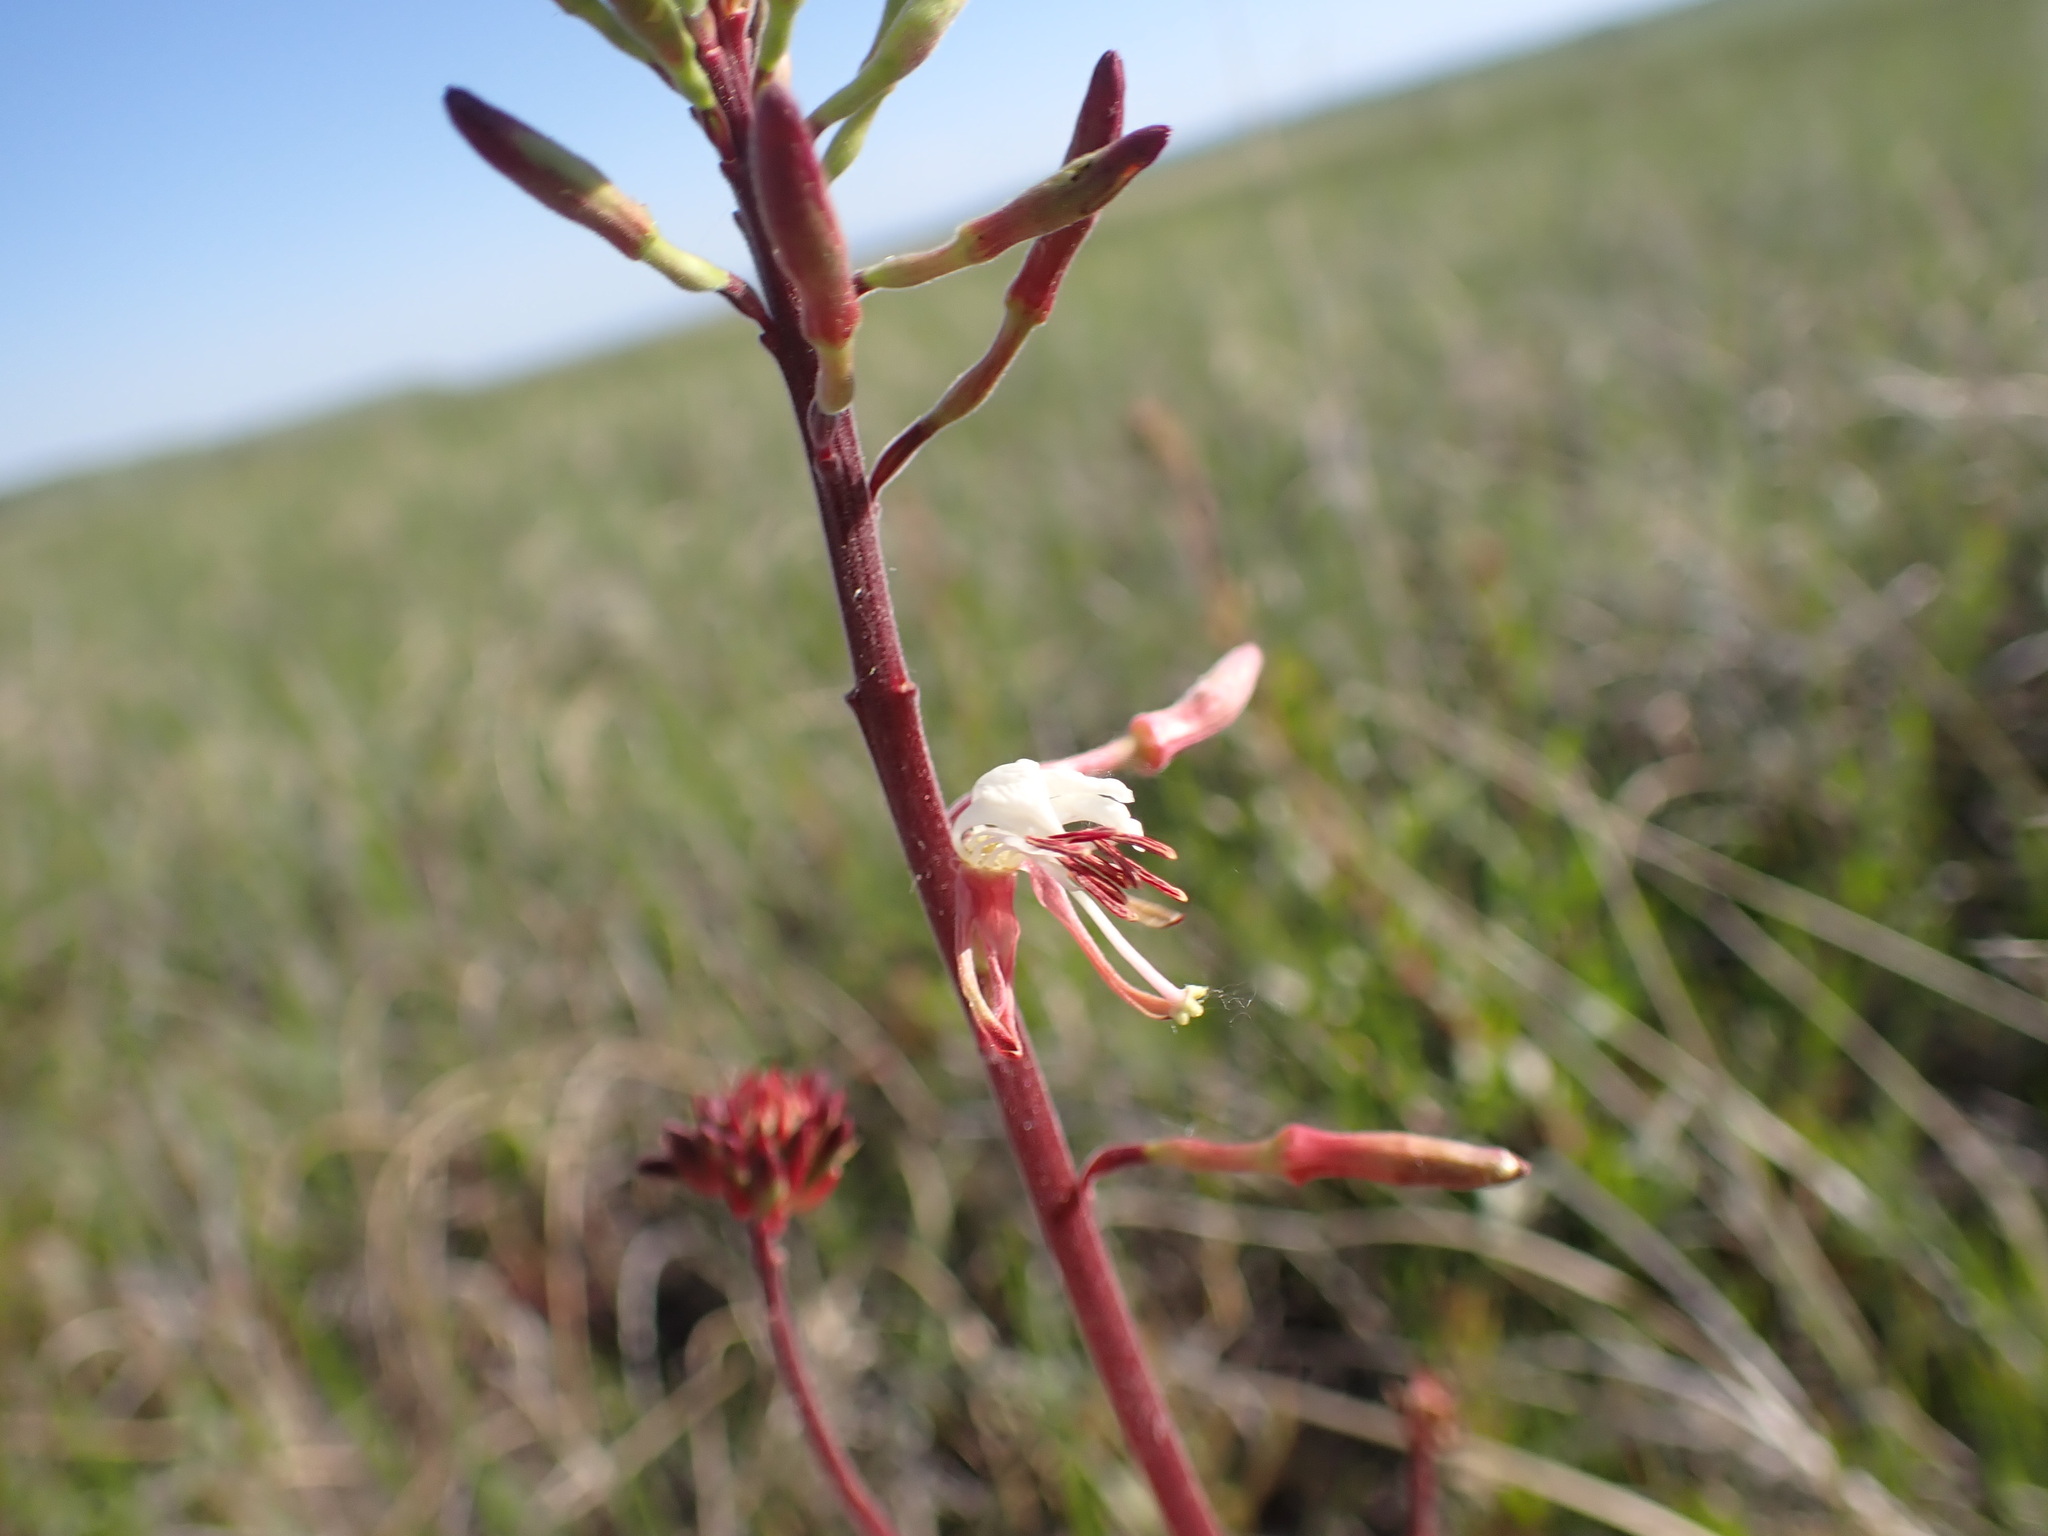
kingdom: Plantae
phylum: Tracheophyta
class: Magnoliopsida
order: Myrtales
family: Onagraceae
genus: Oenothera
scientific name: Oenothera coloradensis
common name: New mexico beeblossom
